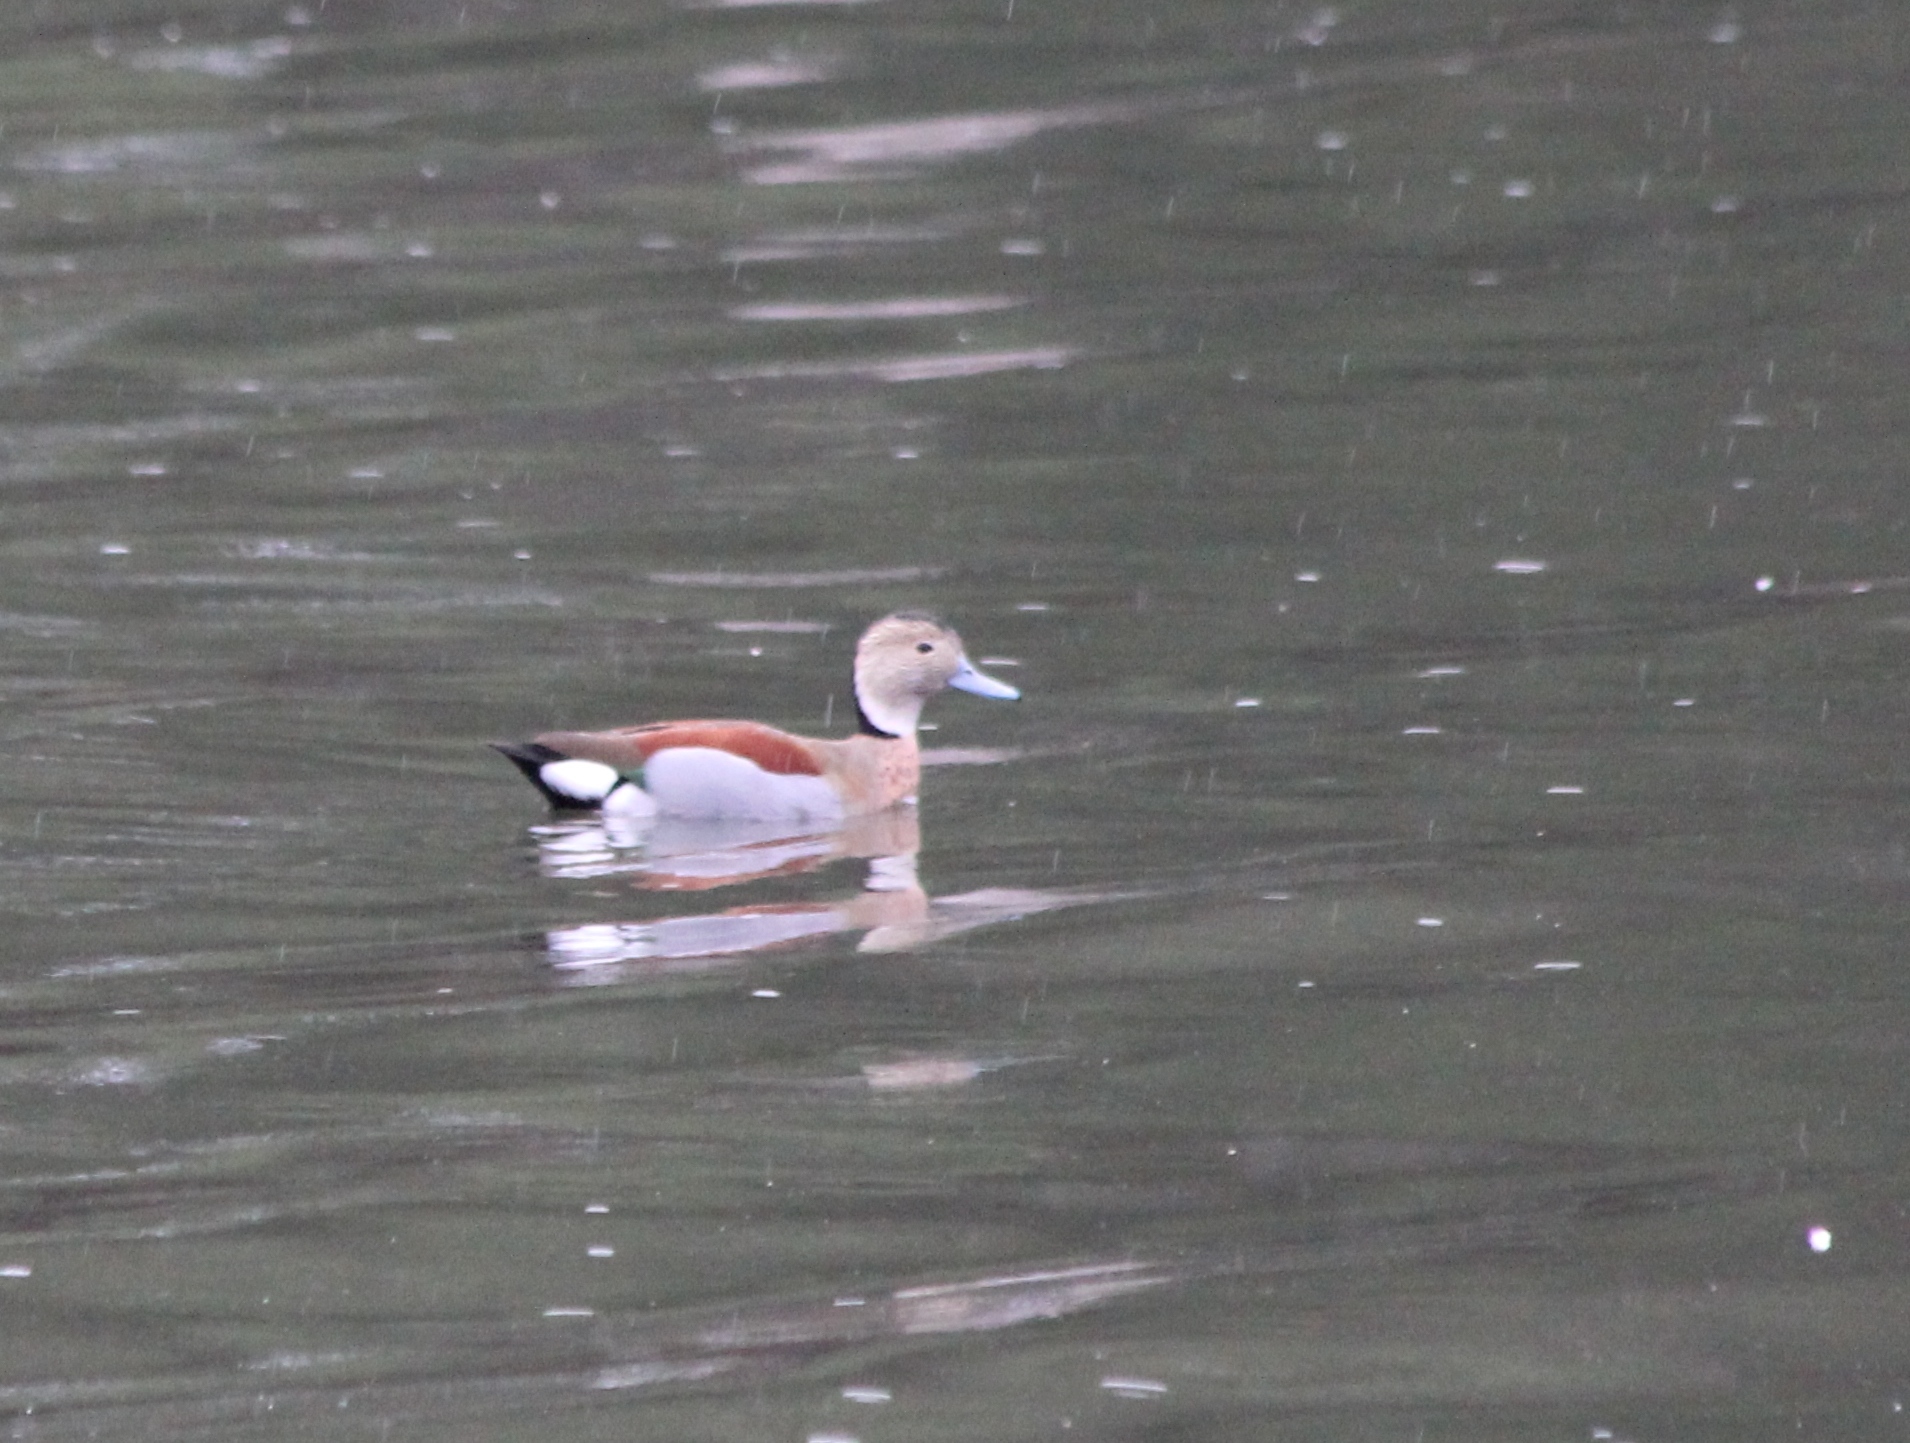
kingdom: Animalia
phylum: Chordata
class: Aves
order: Anseriformes
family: Anatidae
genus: Callonetta
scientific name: Callonetta leucophrys
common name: Ringed teal
